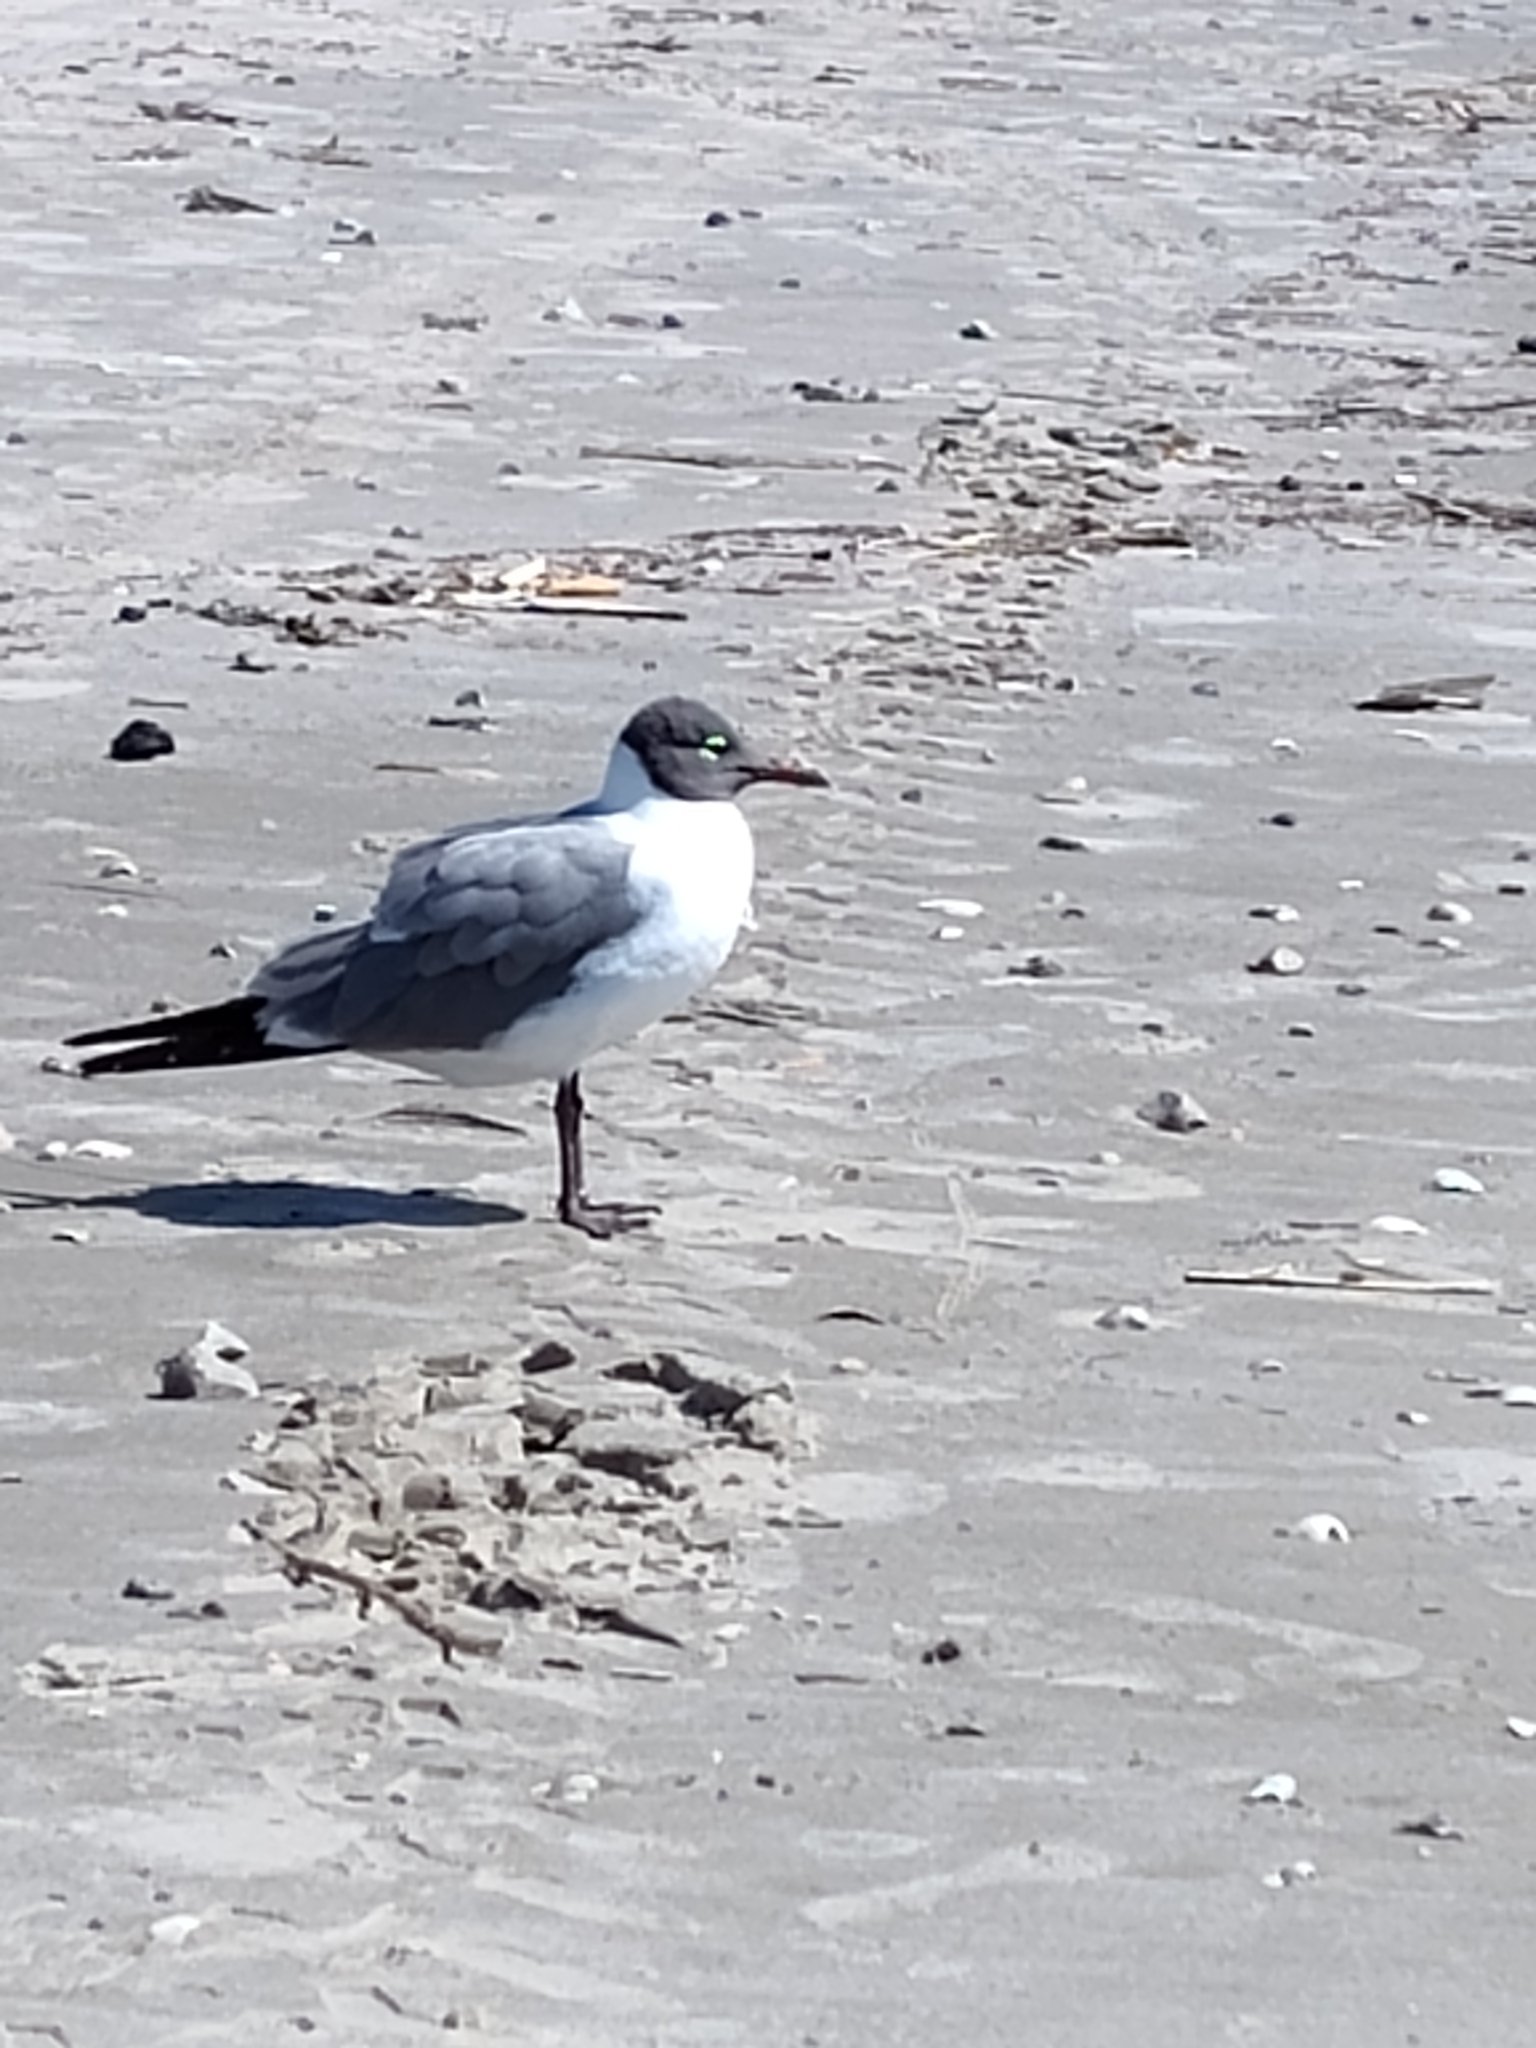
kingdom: Animalia
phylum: Chordata
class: Aves
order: Charadriiformes
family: Laridae
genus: Leucophaeus
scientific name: Leucophaeus atricilla
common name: Laughing gull
